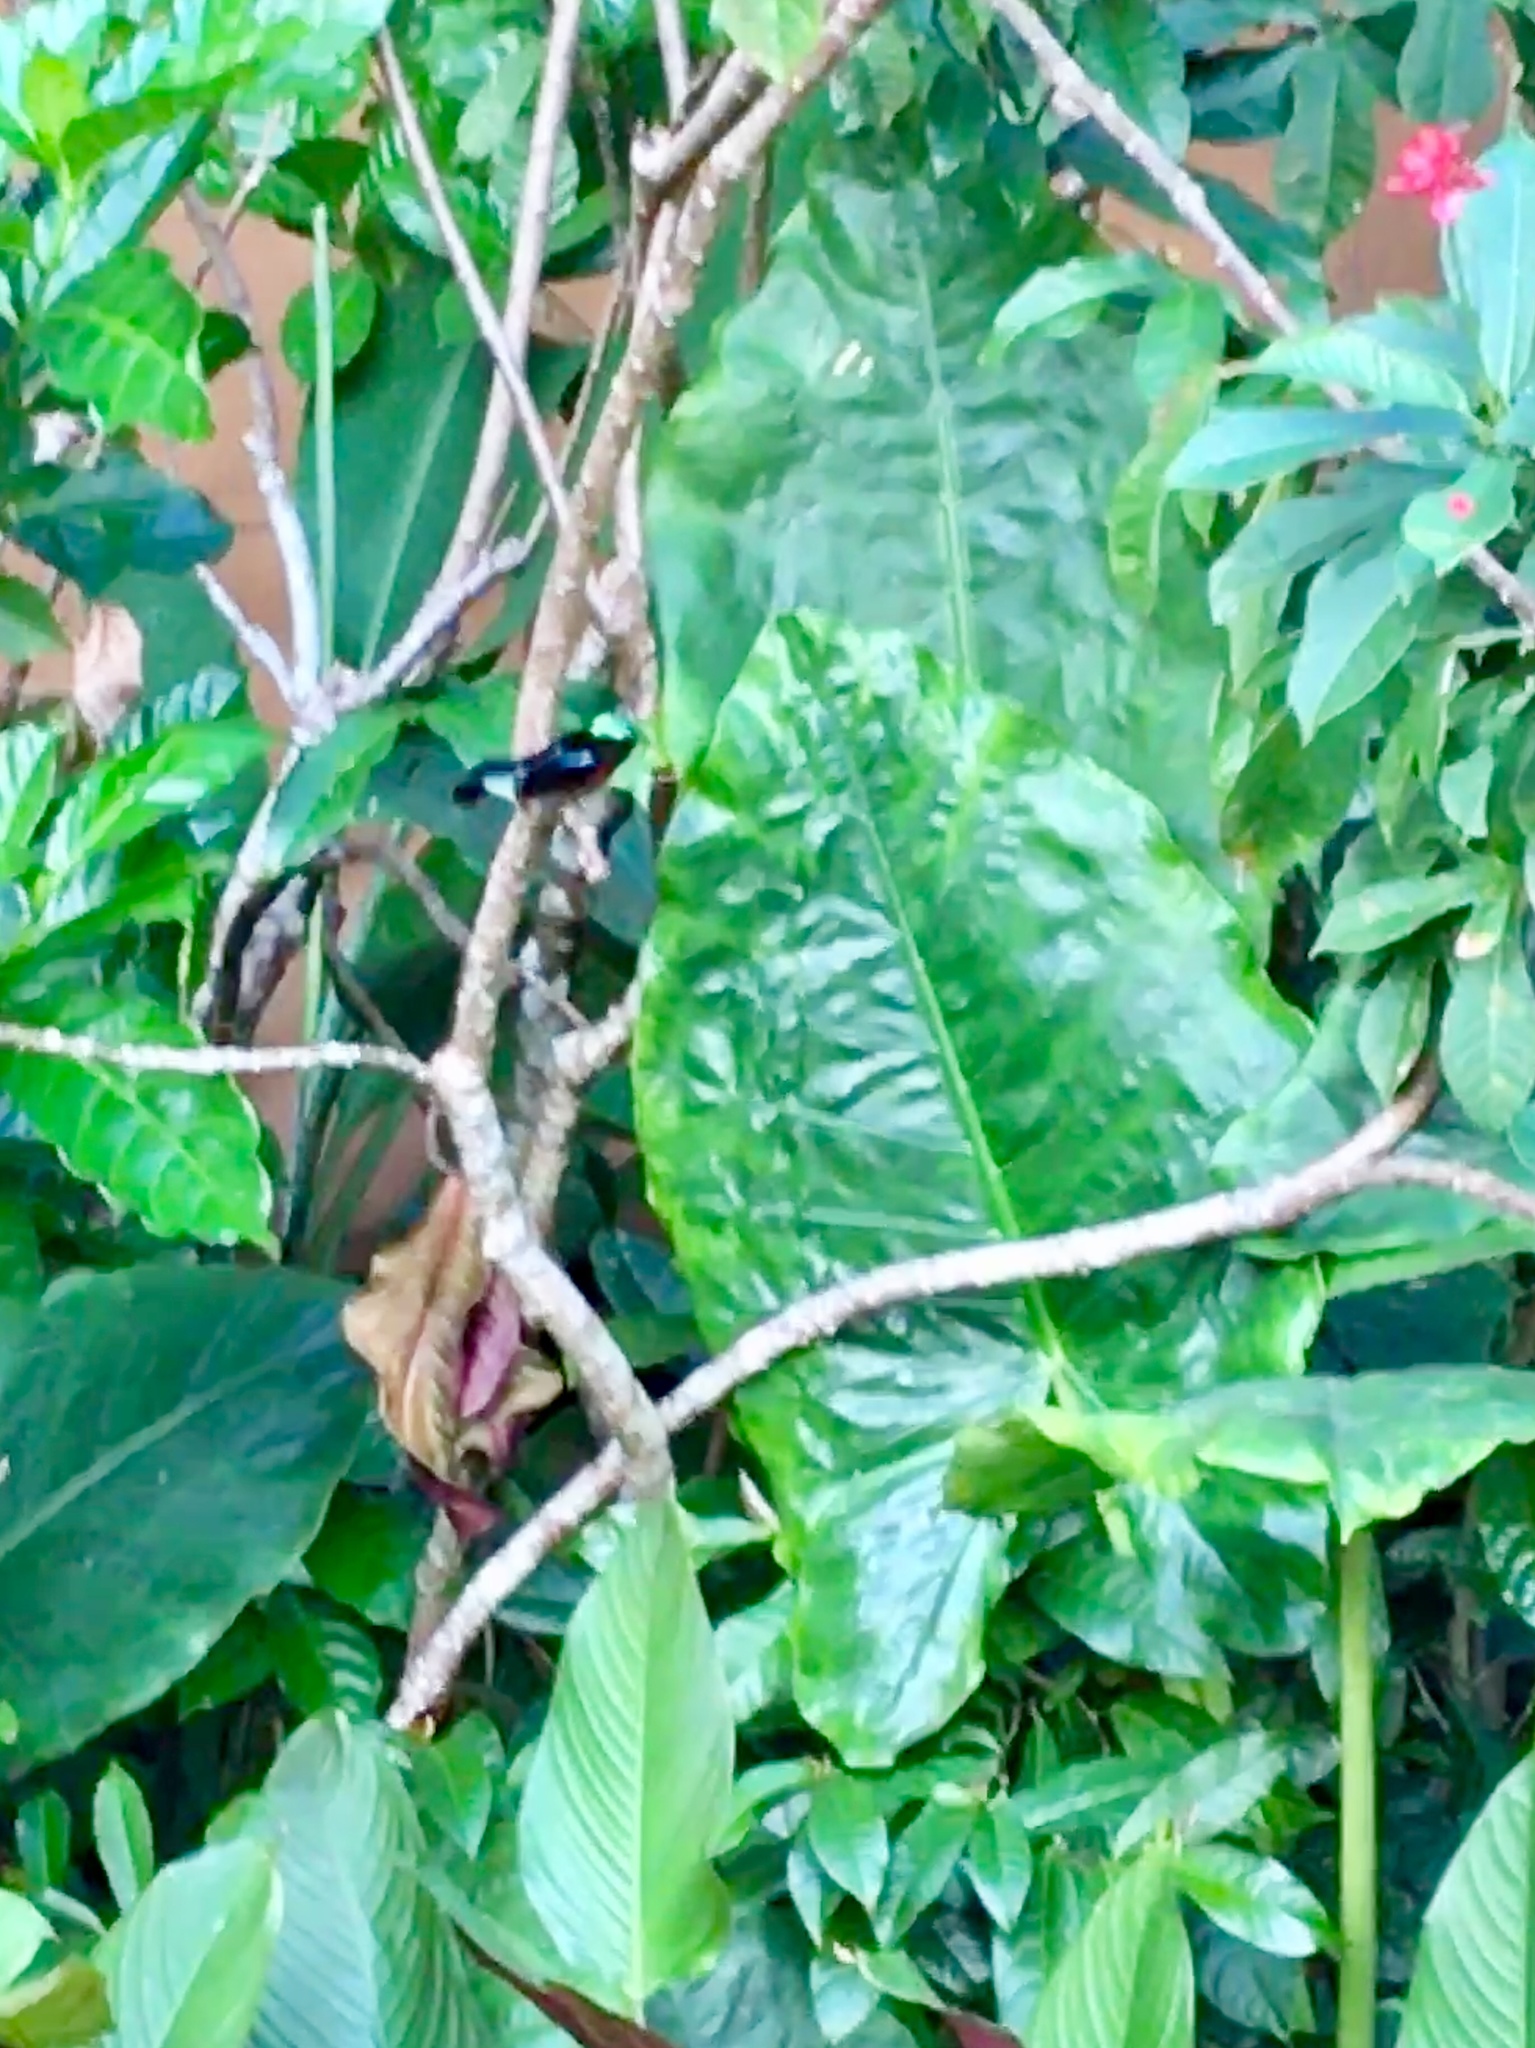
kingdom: Animalia
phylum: Chordata
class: Aves
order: Passeriformes
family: Nectariniidae
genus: Leptocoma
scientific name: Leptocoma brasiliana
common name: Van hasselt's sunbird
